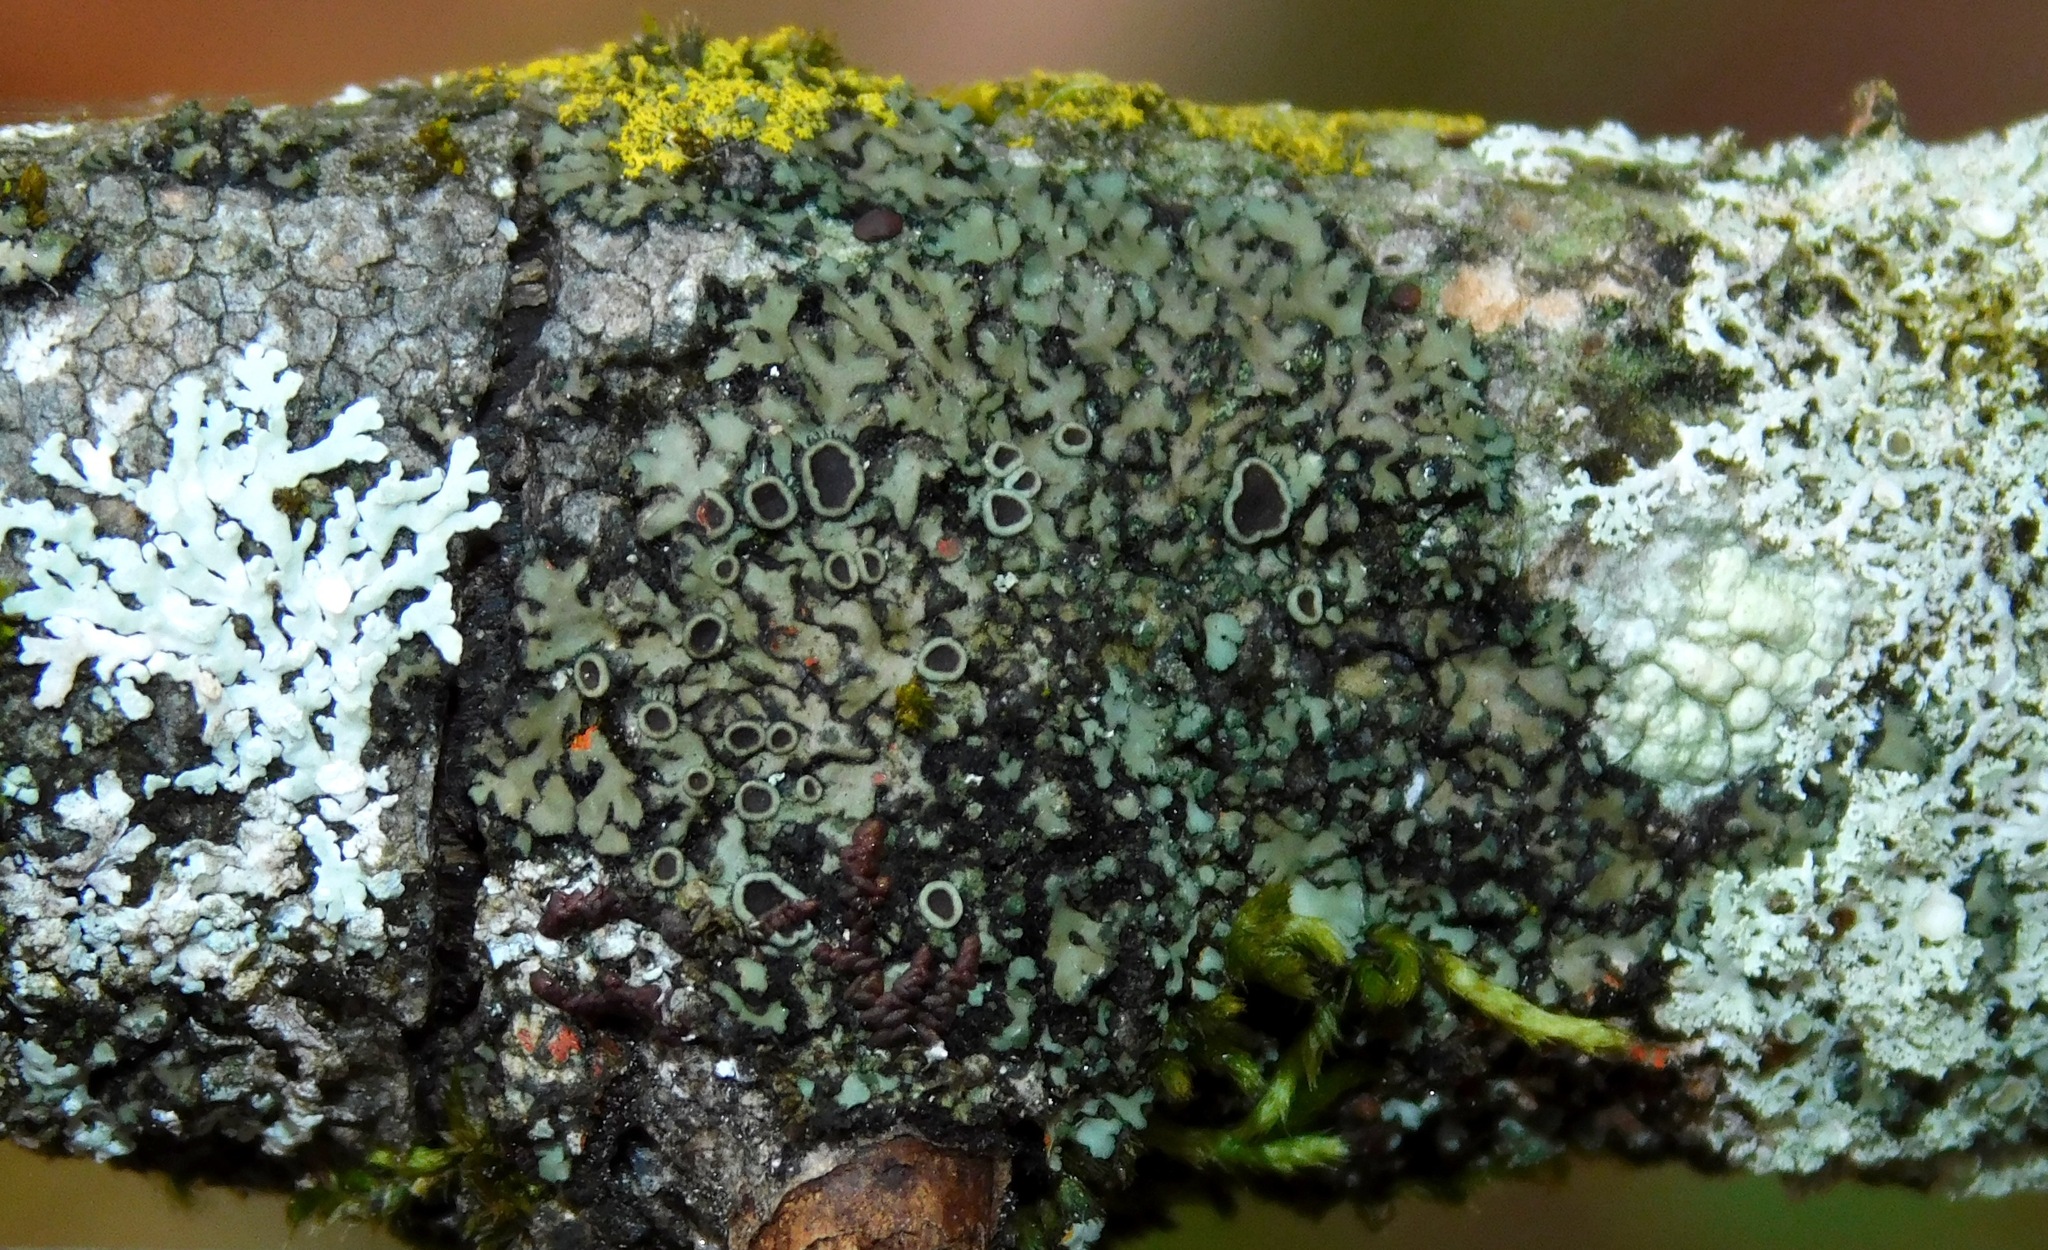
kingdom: Fungi
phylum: Ascomycota
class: Lecanoromycetes
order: Caliciales
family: Physciaceae
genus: Phaeophyscia
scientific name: Phaeophyscia ciliata
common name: Smooth shadow lichen
